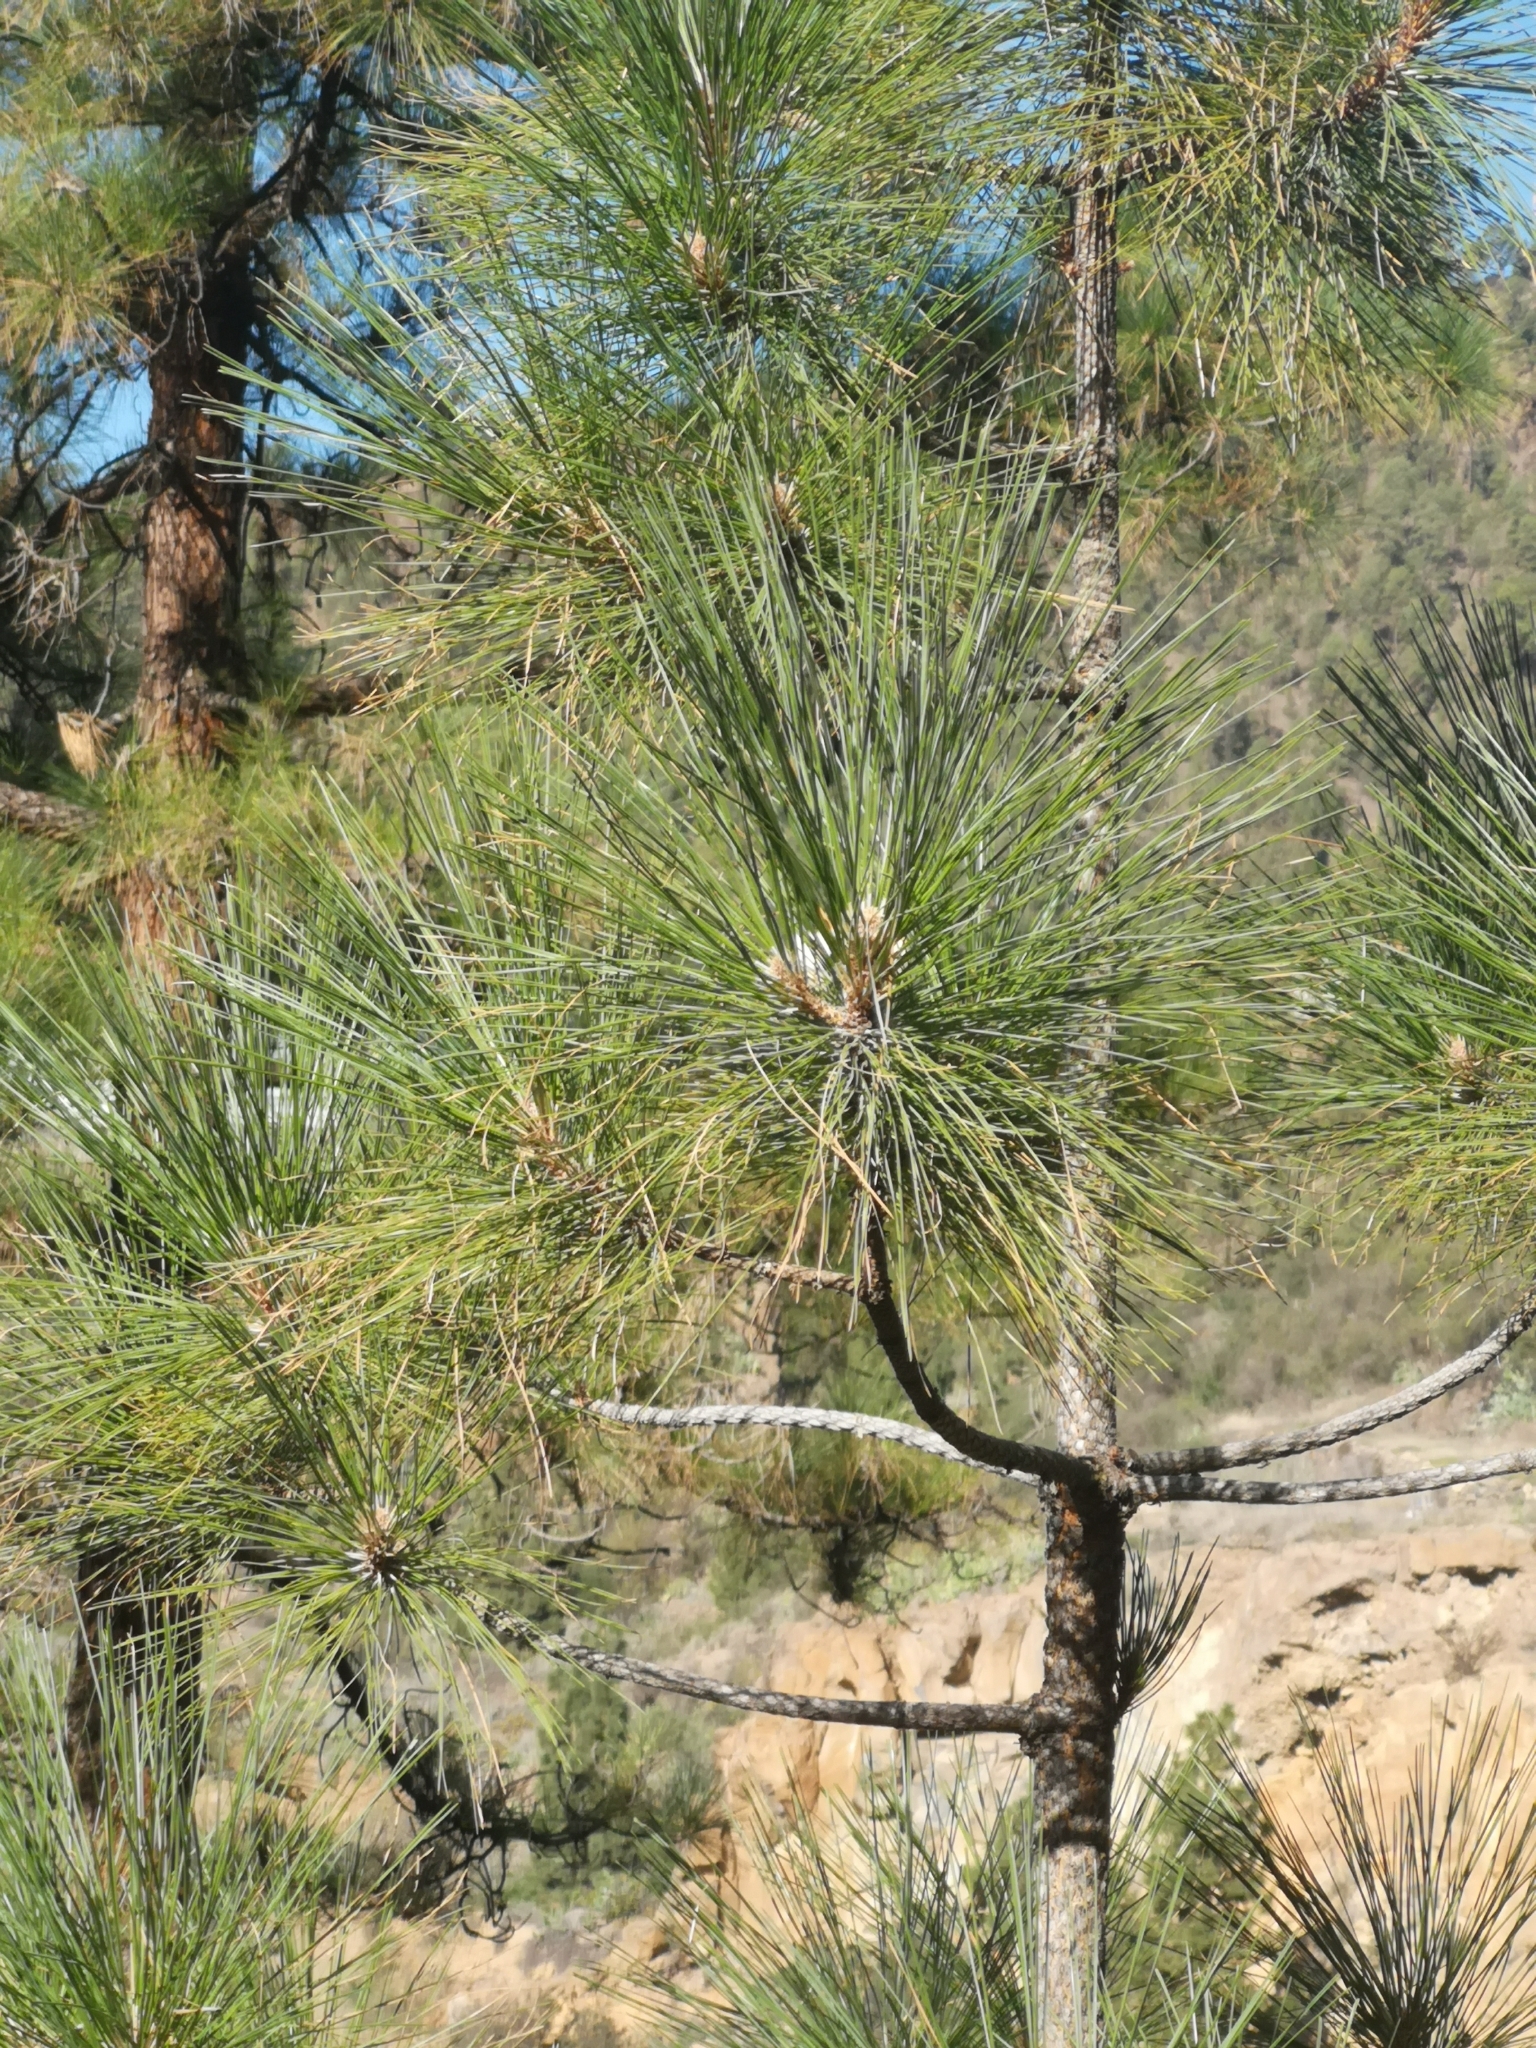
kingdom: Plantae
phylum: Tracheophyta
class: Pinopsida
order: Pinales
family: Pinaceae
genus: Pinus
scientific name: Pinus canariensis
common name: Canary islands pine
